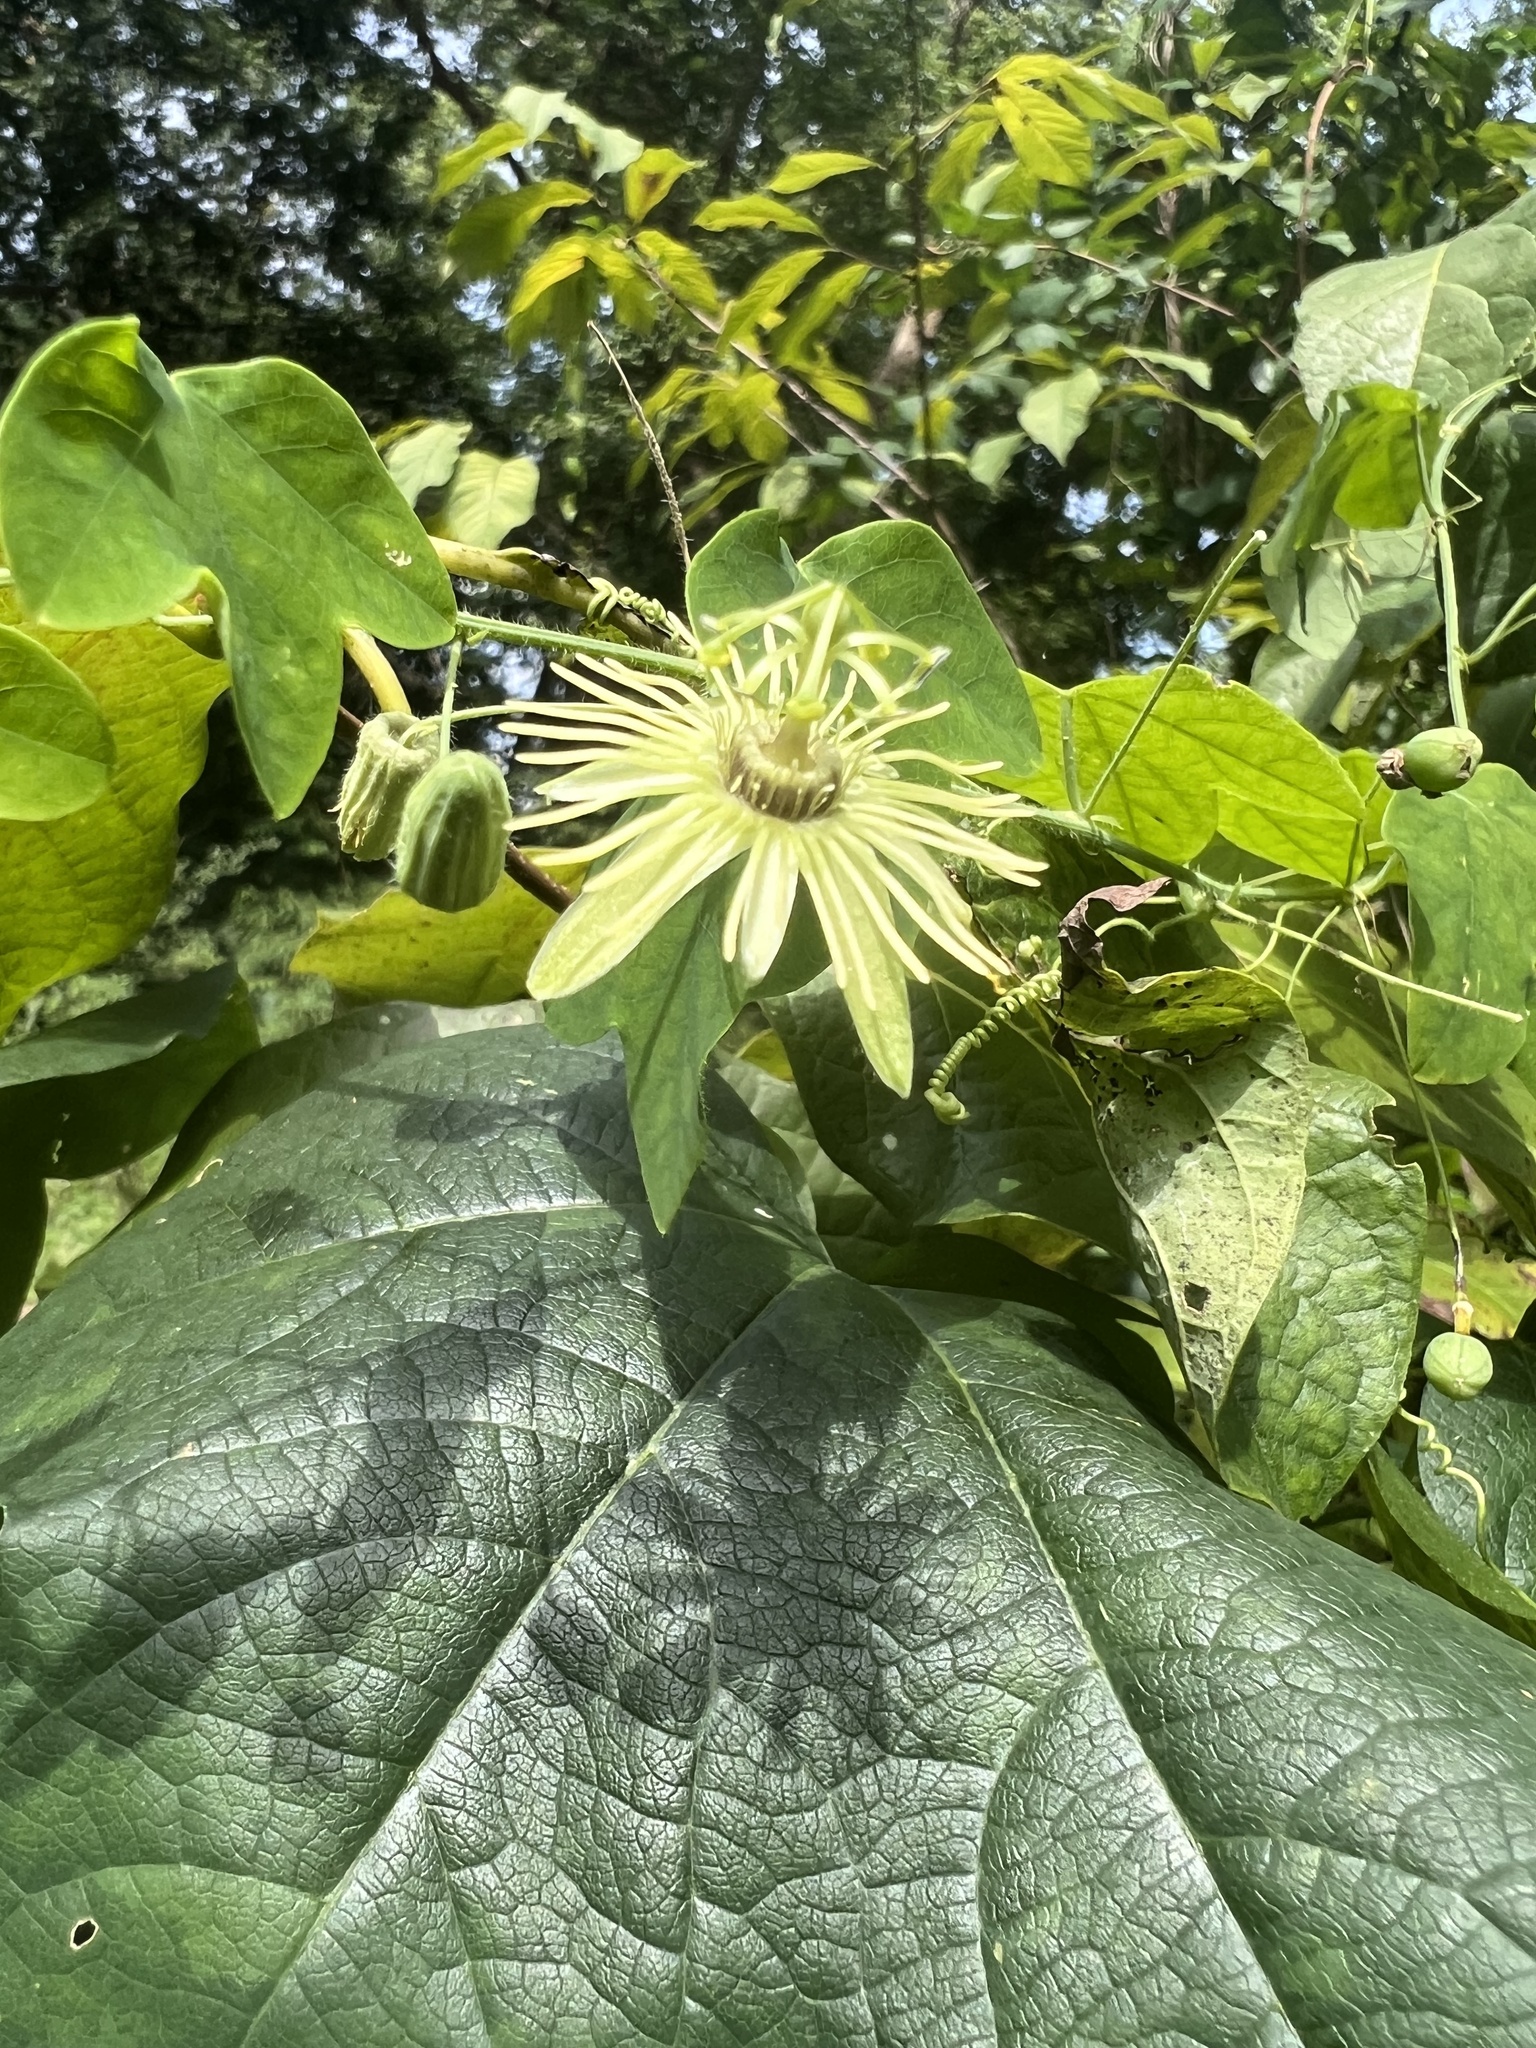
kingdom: Plantae
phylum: Tracheophyta
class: Magnoliopsida
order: Malpighiales
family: Passifloraceae
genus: Passiflora
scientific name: Passiflora lutea
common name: Yellow passionflower
